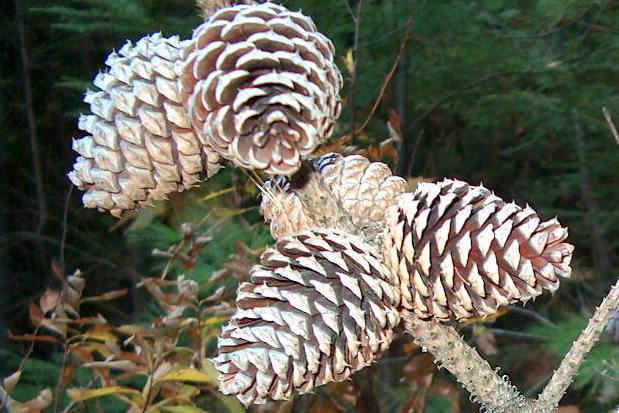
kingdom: Plantae
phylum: Tracheophyta
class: Pinopsida
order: Pinales
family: Pinaceae
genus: Pinus
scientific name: Pinus rigida
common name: Pitch pine
